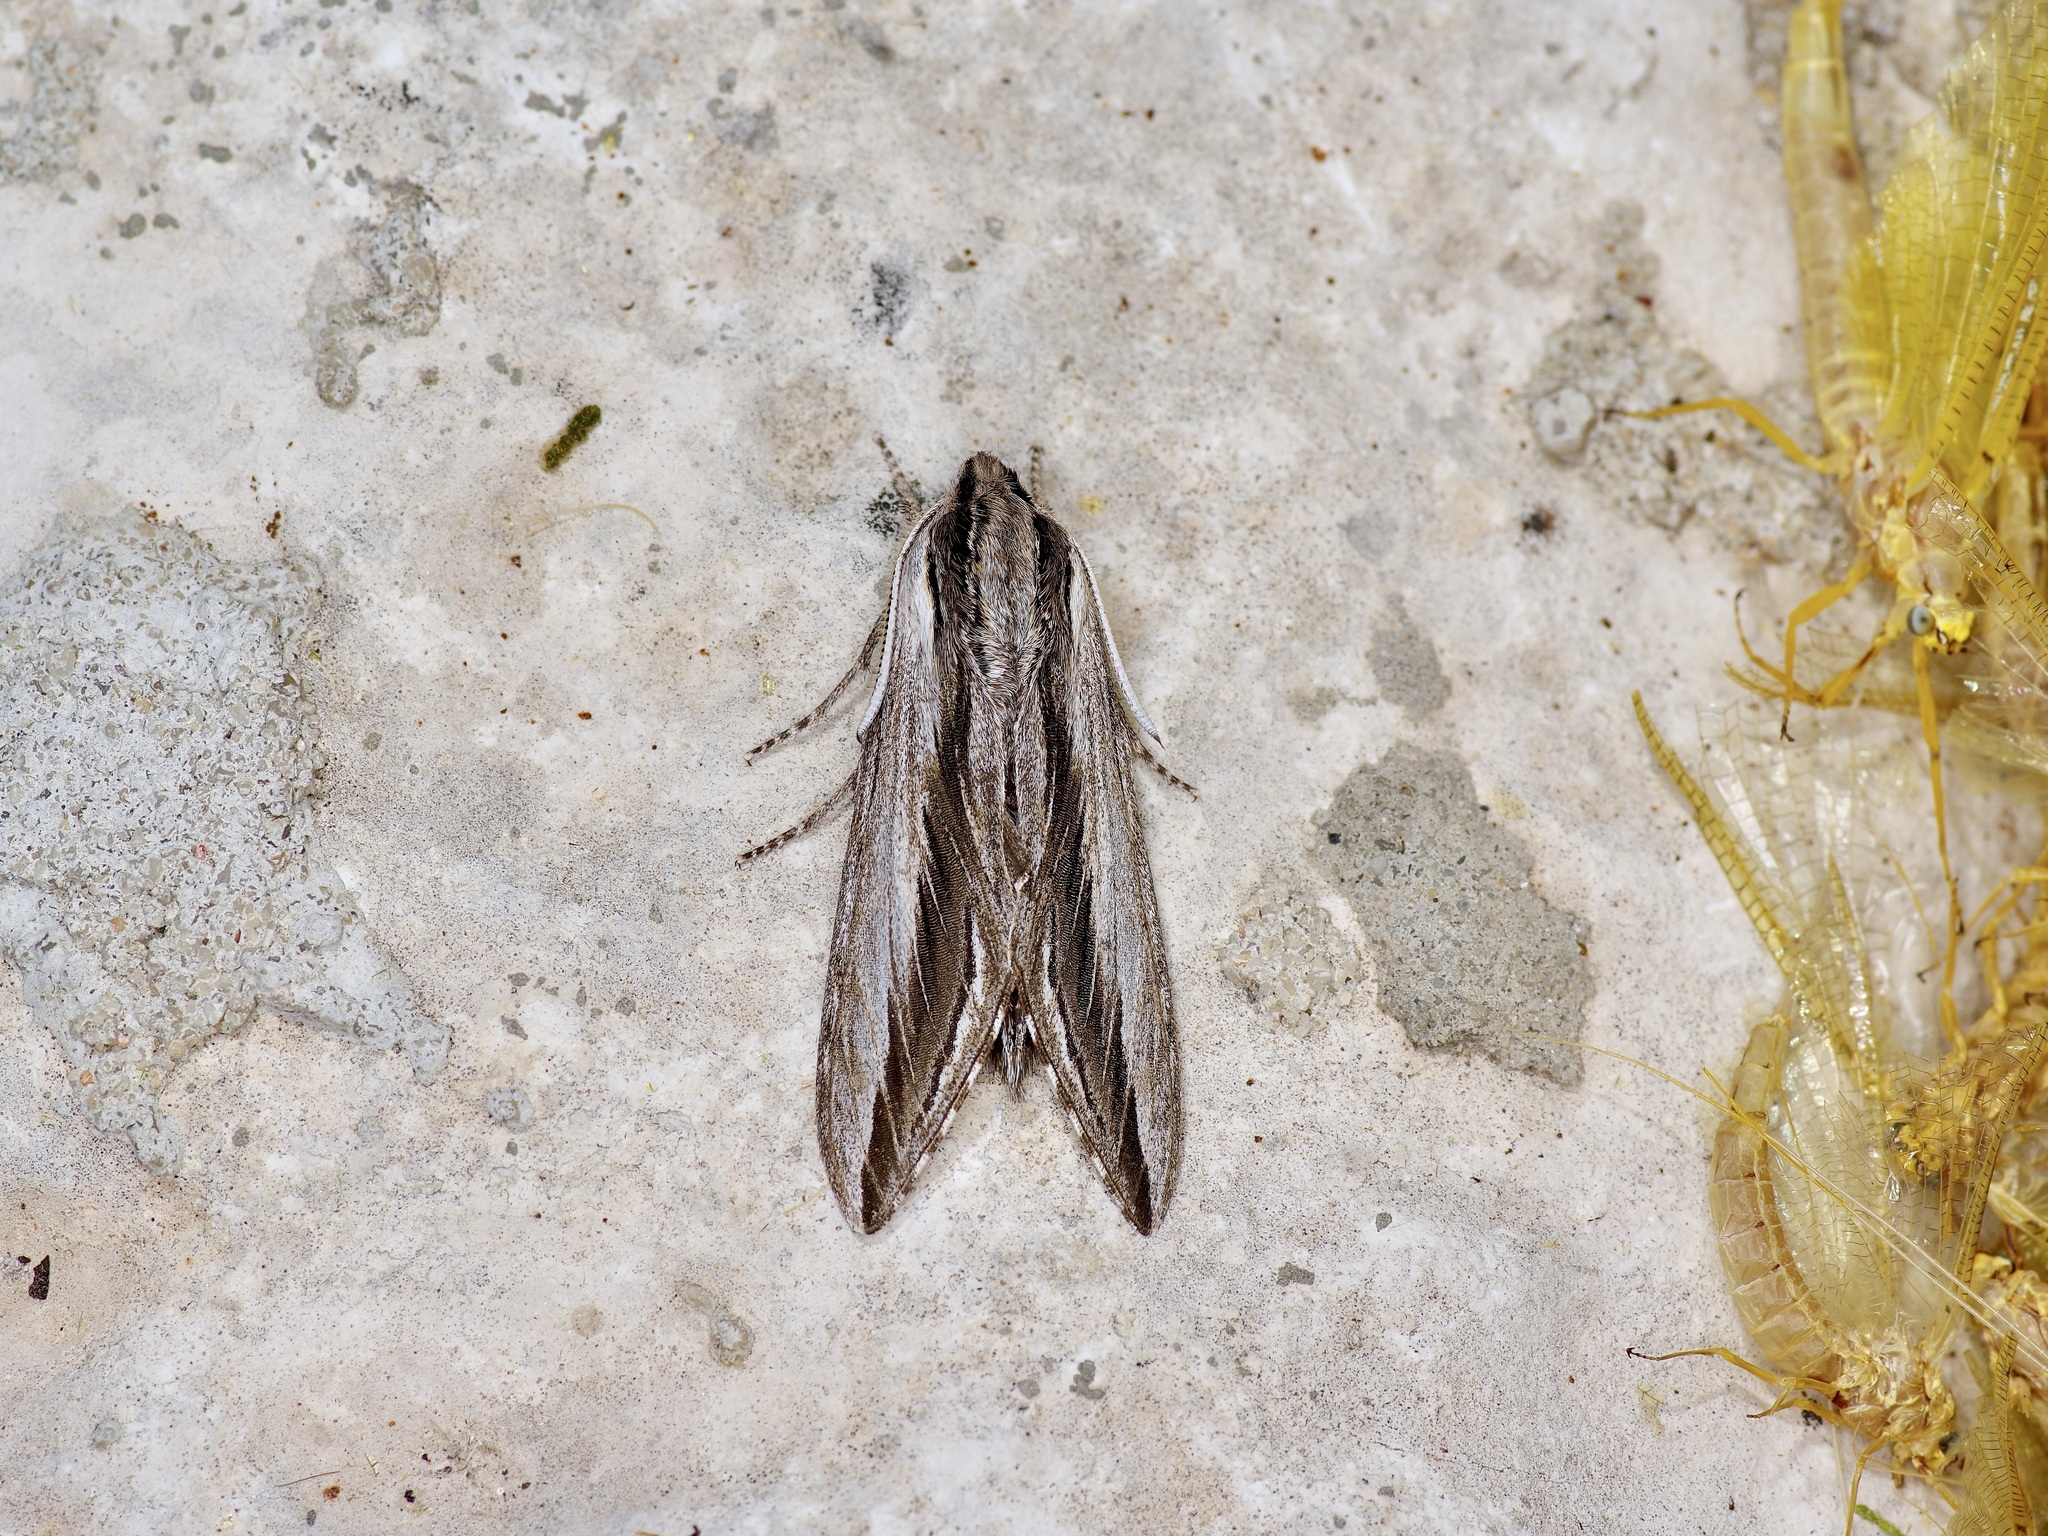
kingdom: Animalia
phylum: Arthropoda
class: Insecta
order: Lepidoptera
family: Sphingidae
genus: Sphinx
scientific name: Sphinx vanbuskirki
